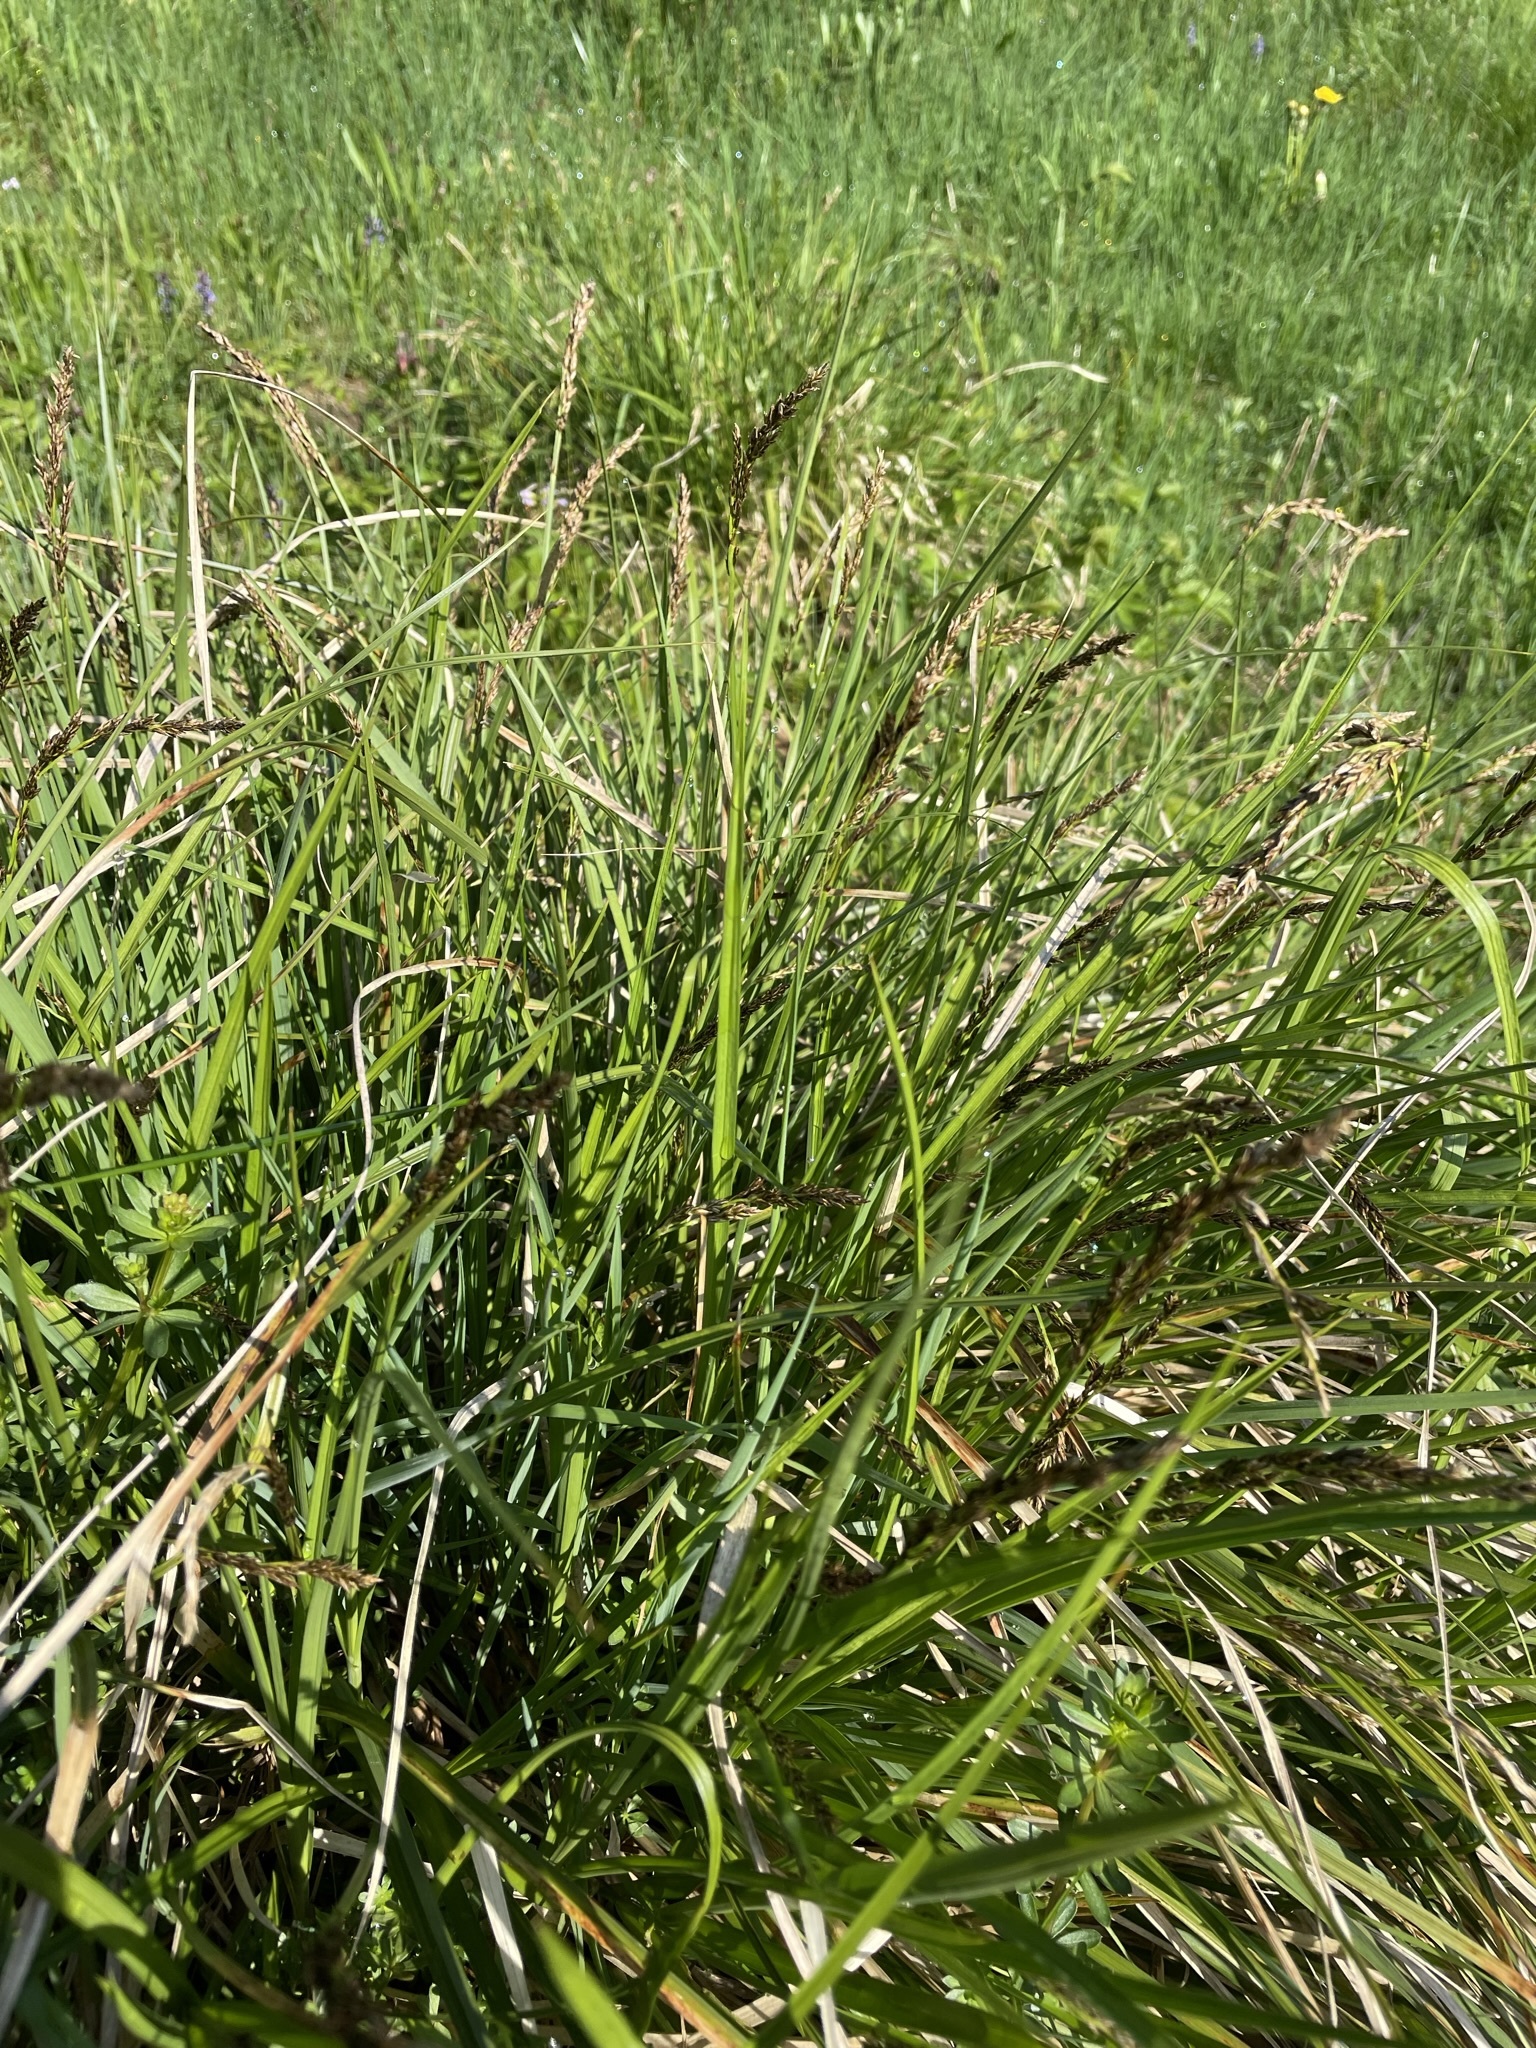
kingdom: Plantae
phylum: Tracheophyta
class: Liliopsida
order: Poales
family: Cyperaceae
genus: Carex
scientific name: Carex paniculata
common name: Greater tussock-sedge
